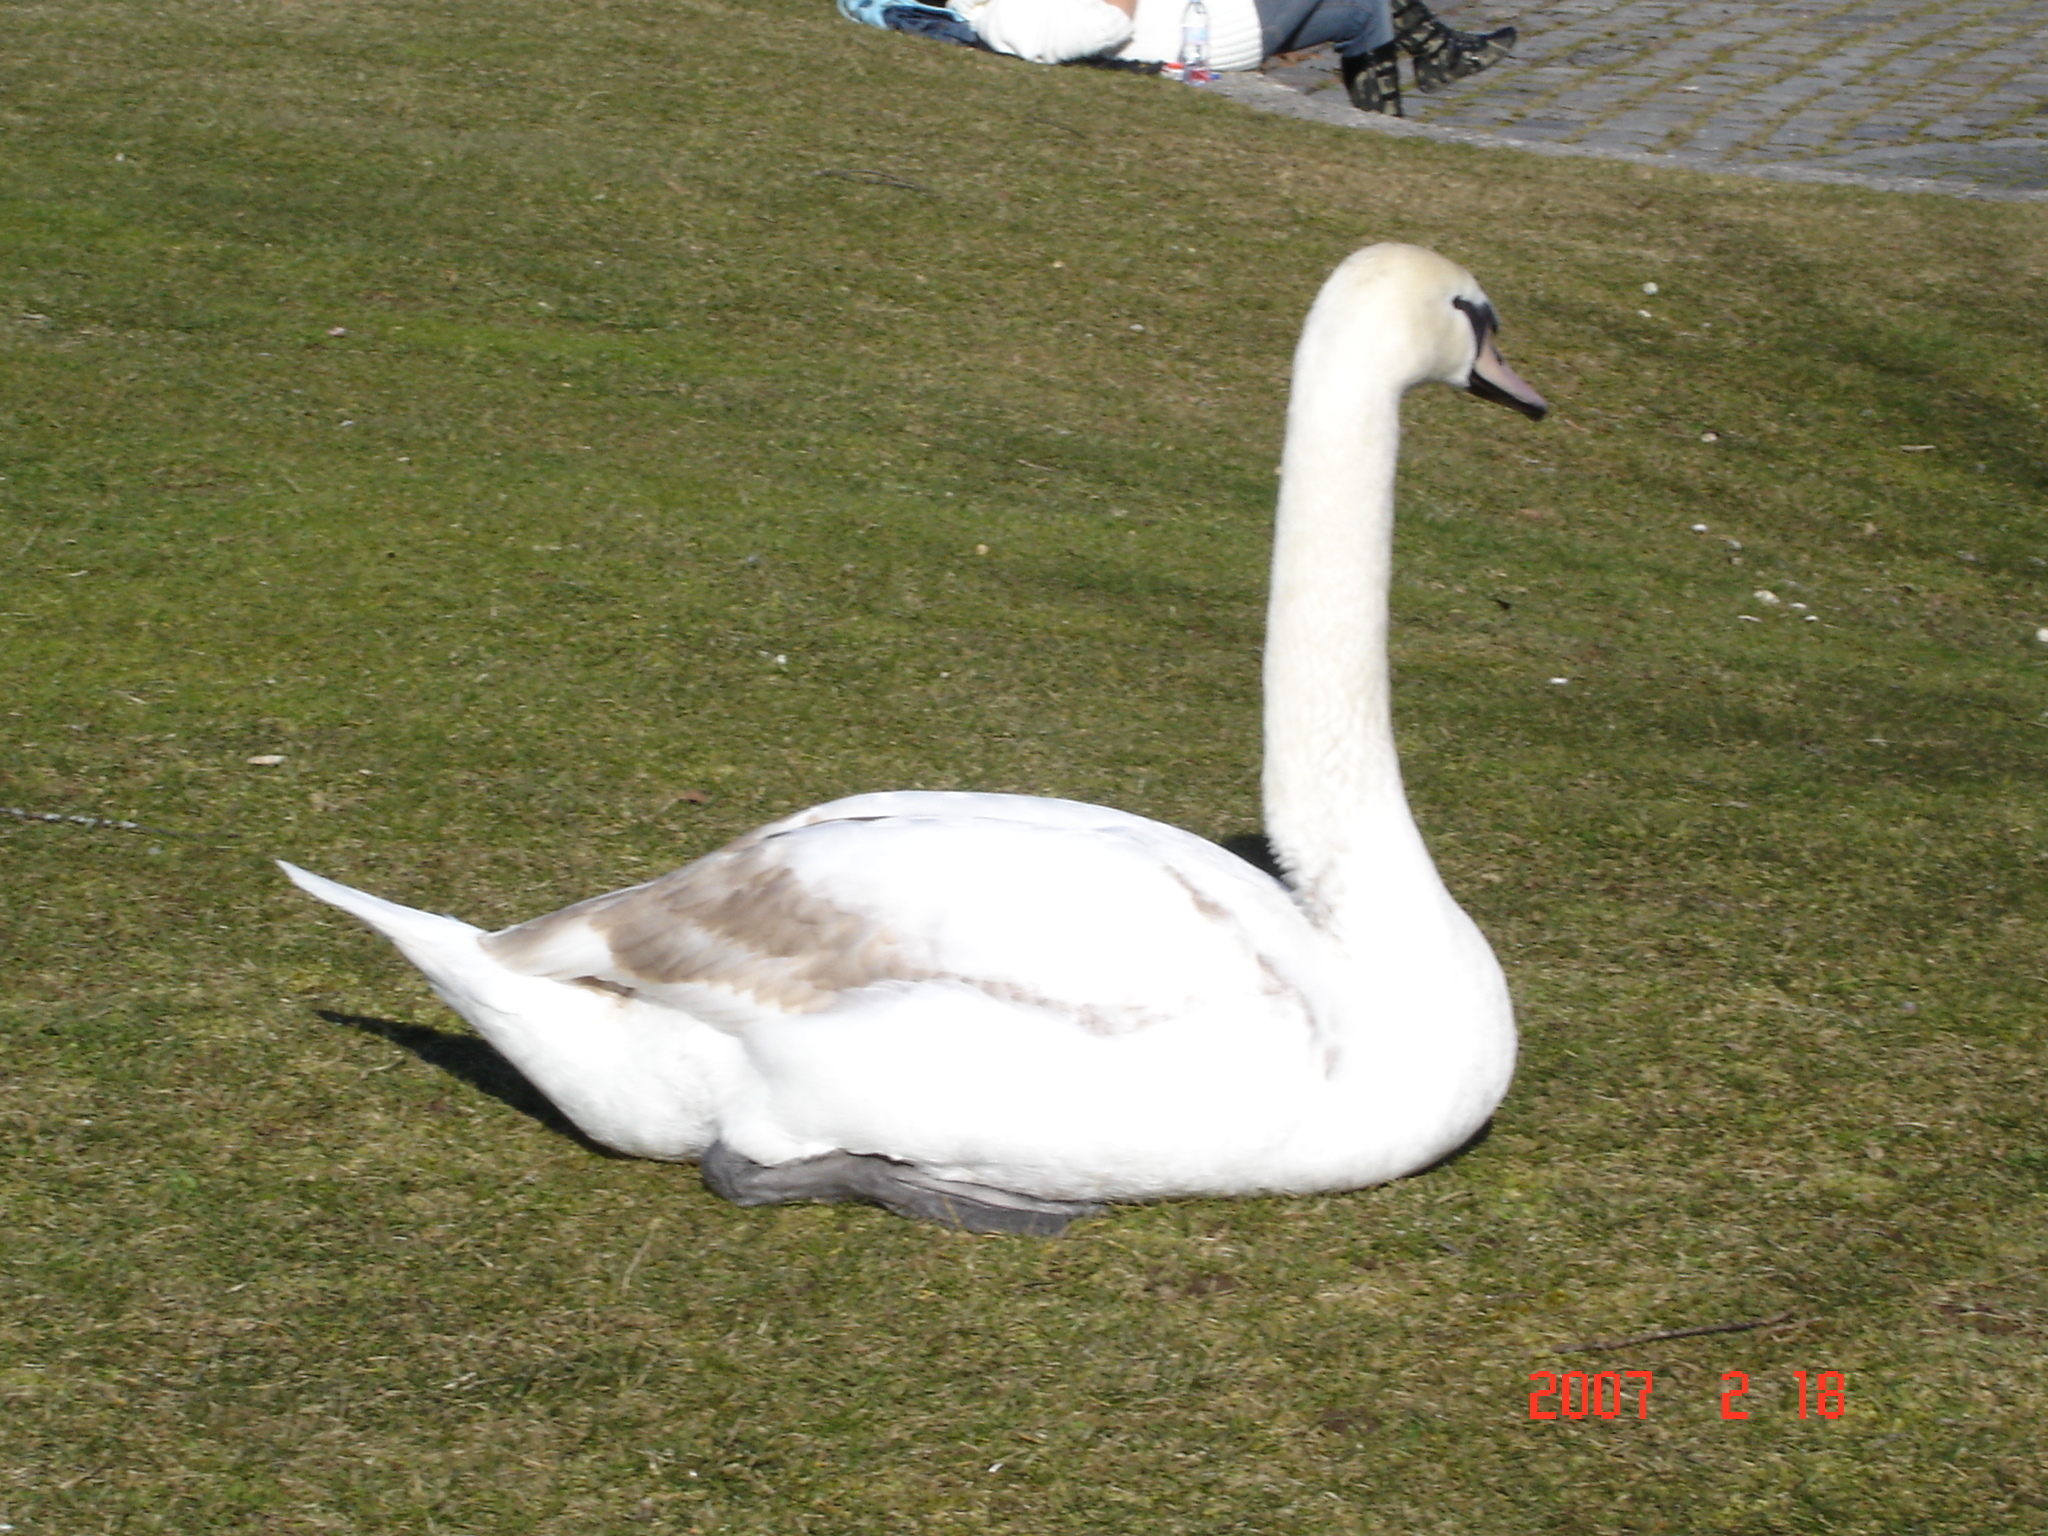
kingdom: Animalia
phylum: Chordata
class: Aves
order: Anseriformes
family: Anatidae
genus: Cygnus
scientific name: Cygnus olor
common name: Mute swan
